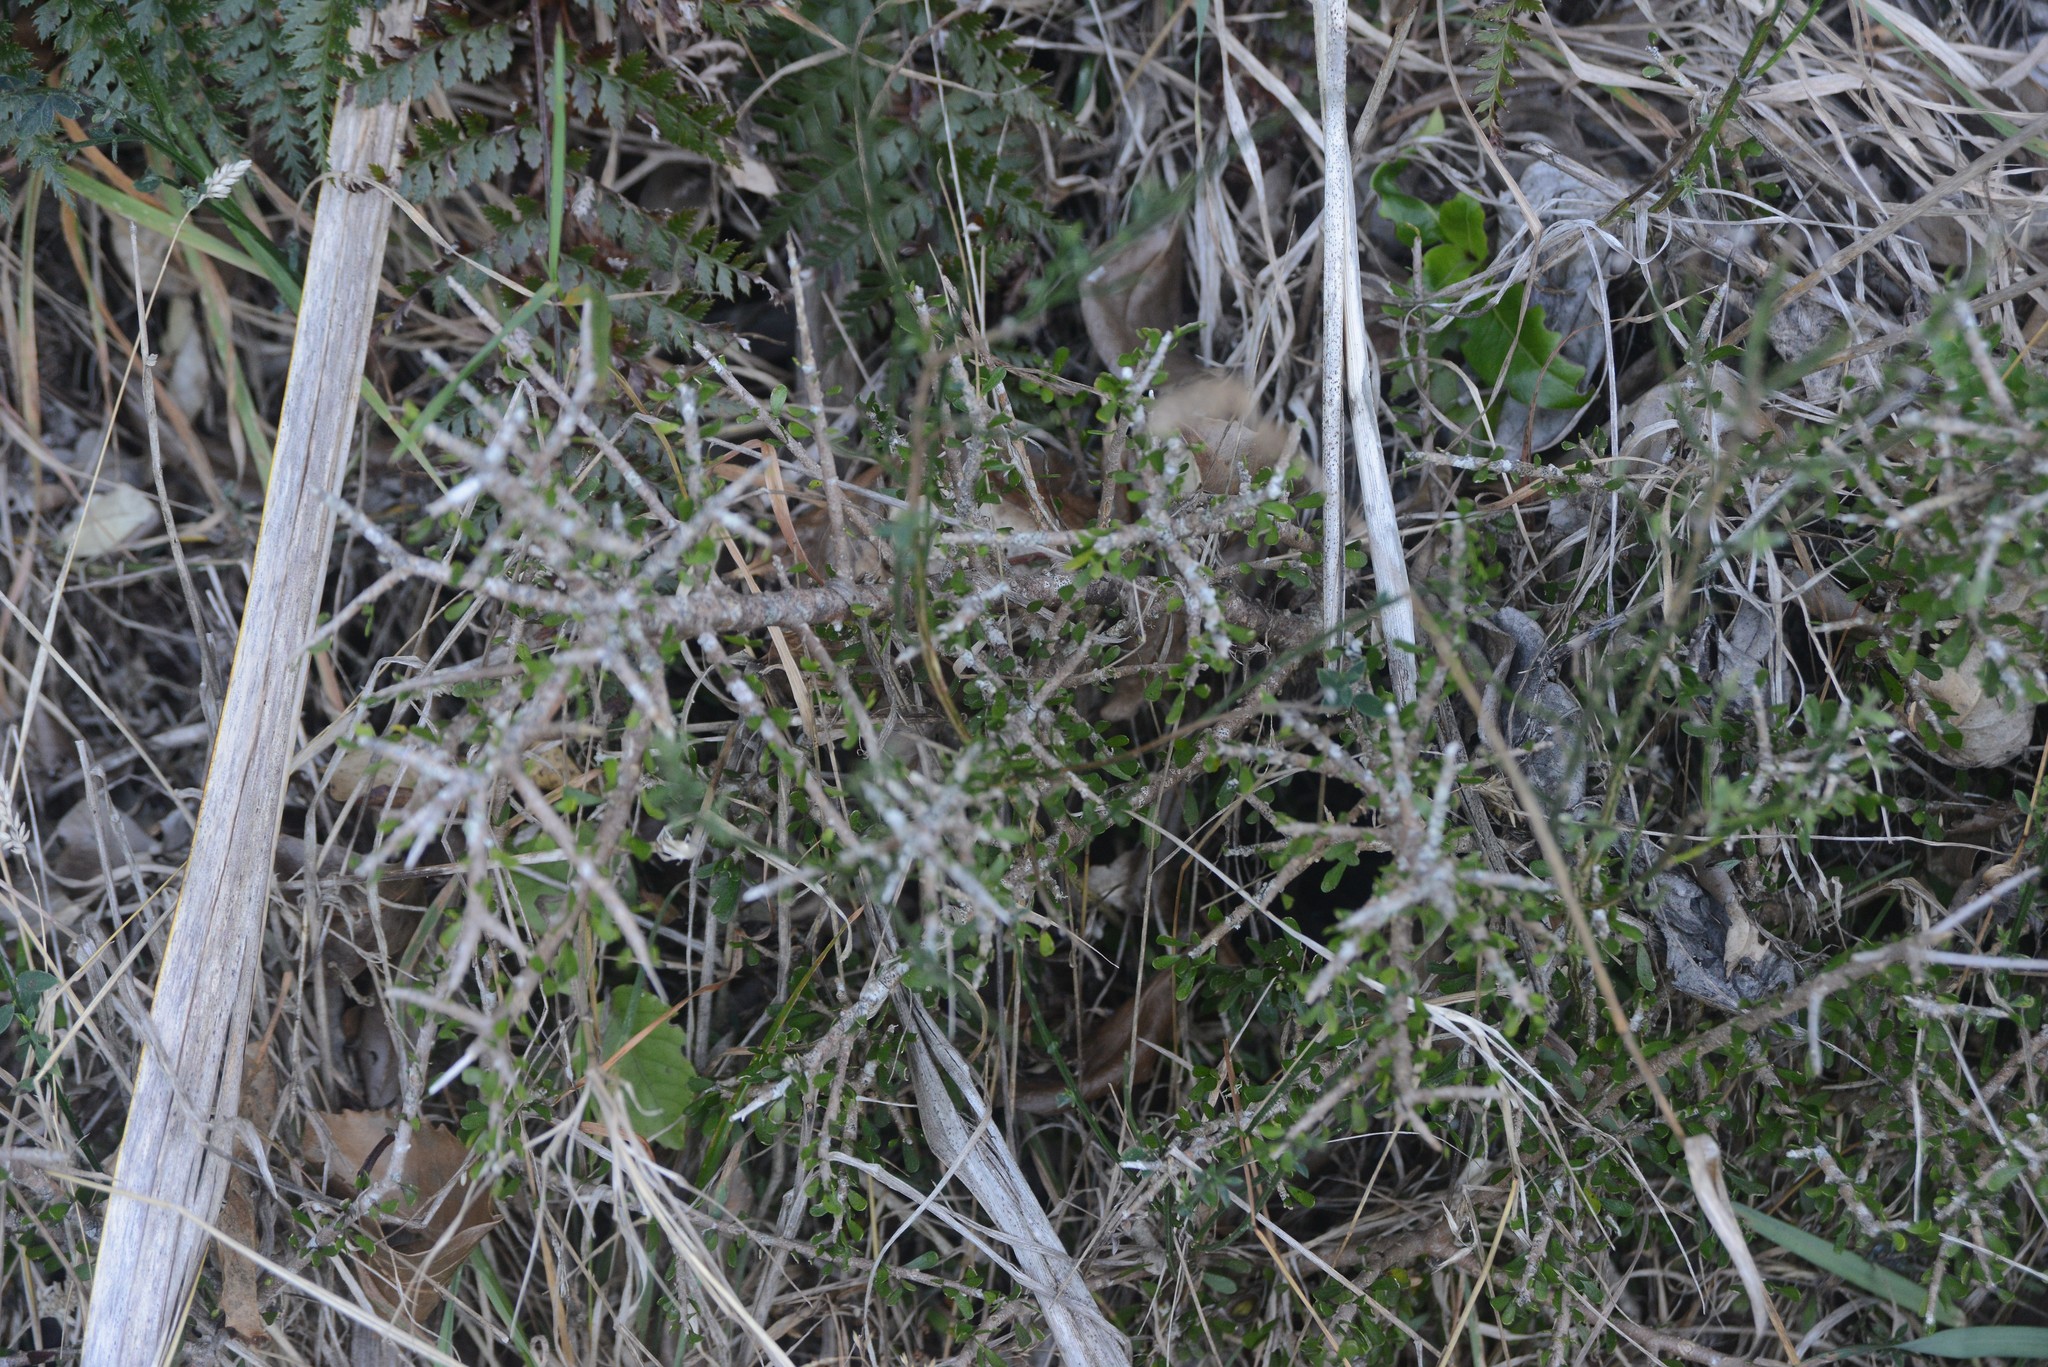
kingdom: Plantae
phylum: Tracheophyta
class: Magnoliopsida
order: Malpighiales
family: Violaceae
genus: Melicytus
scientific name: Melicytus alpinus
